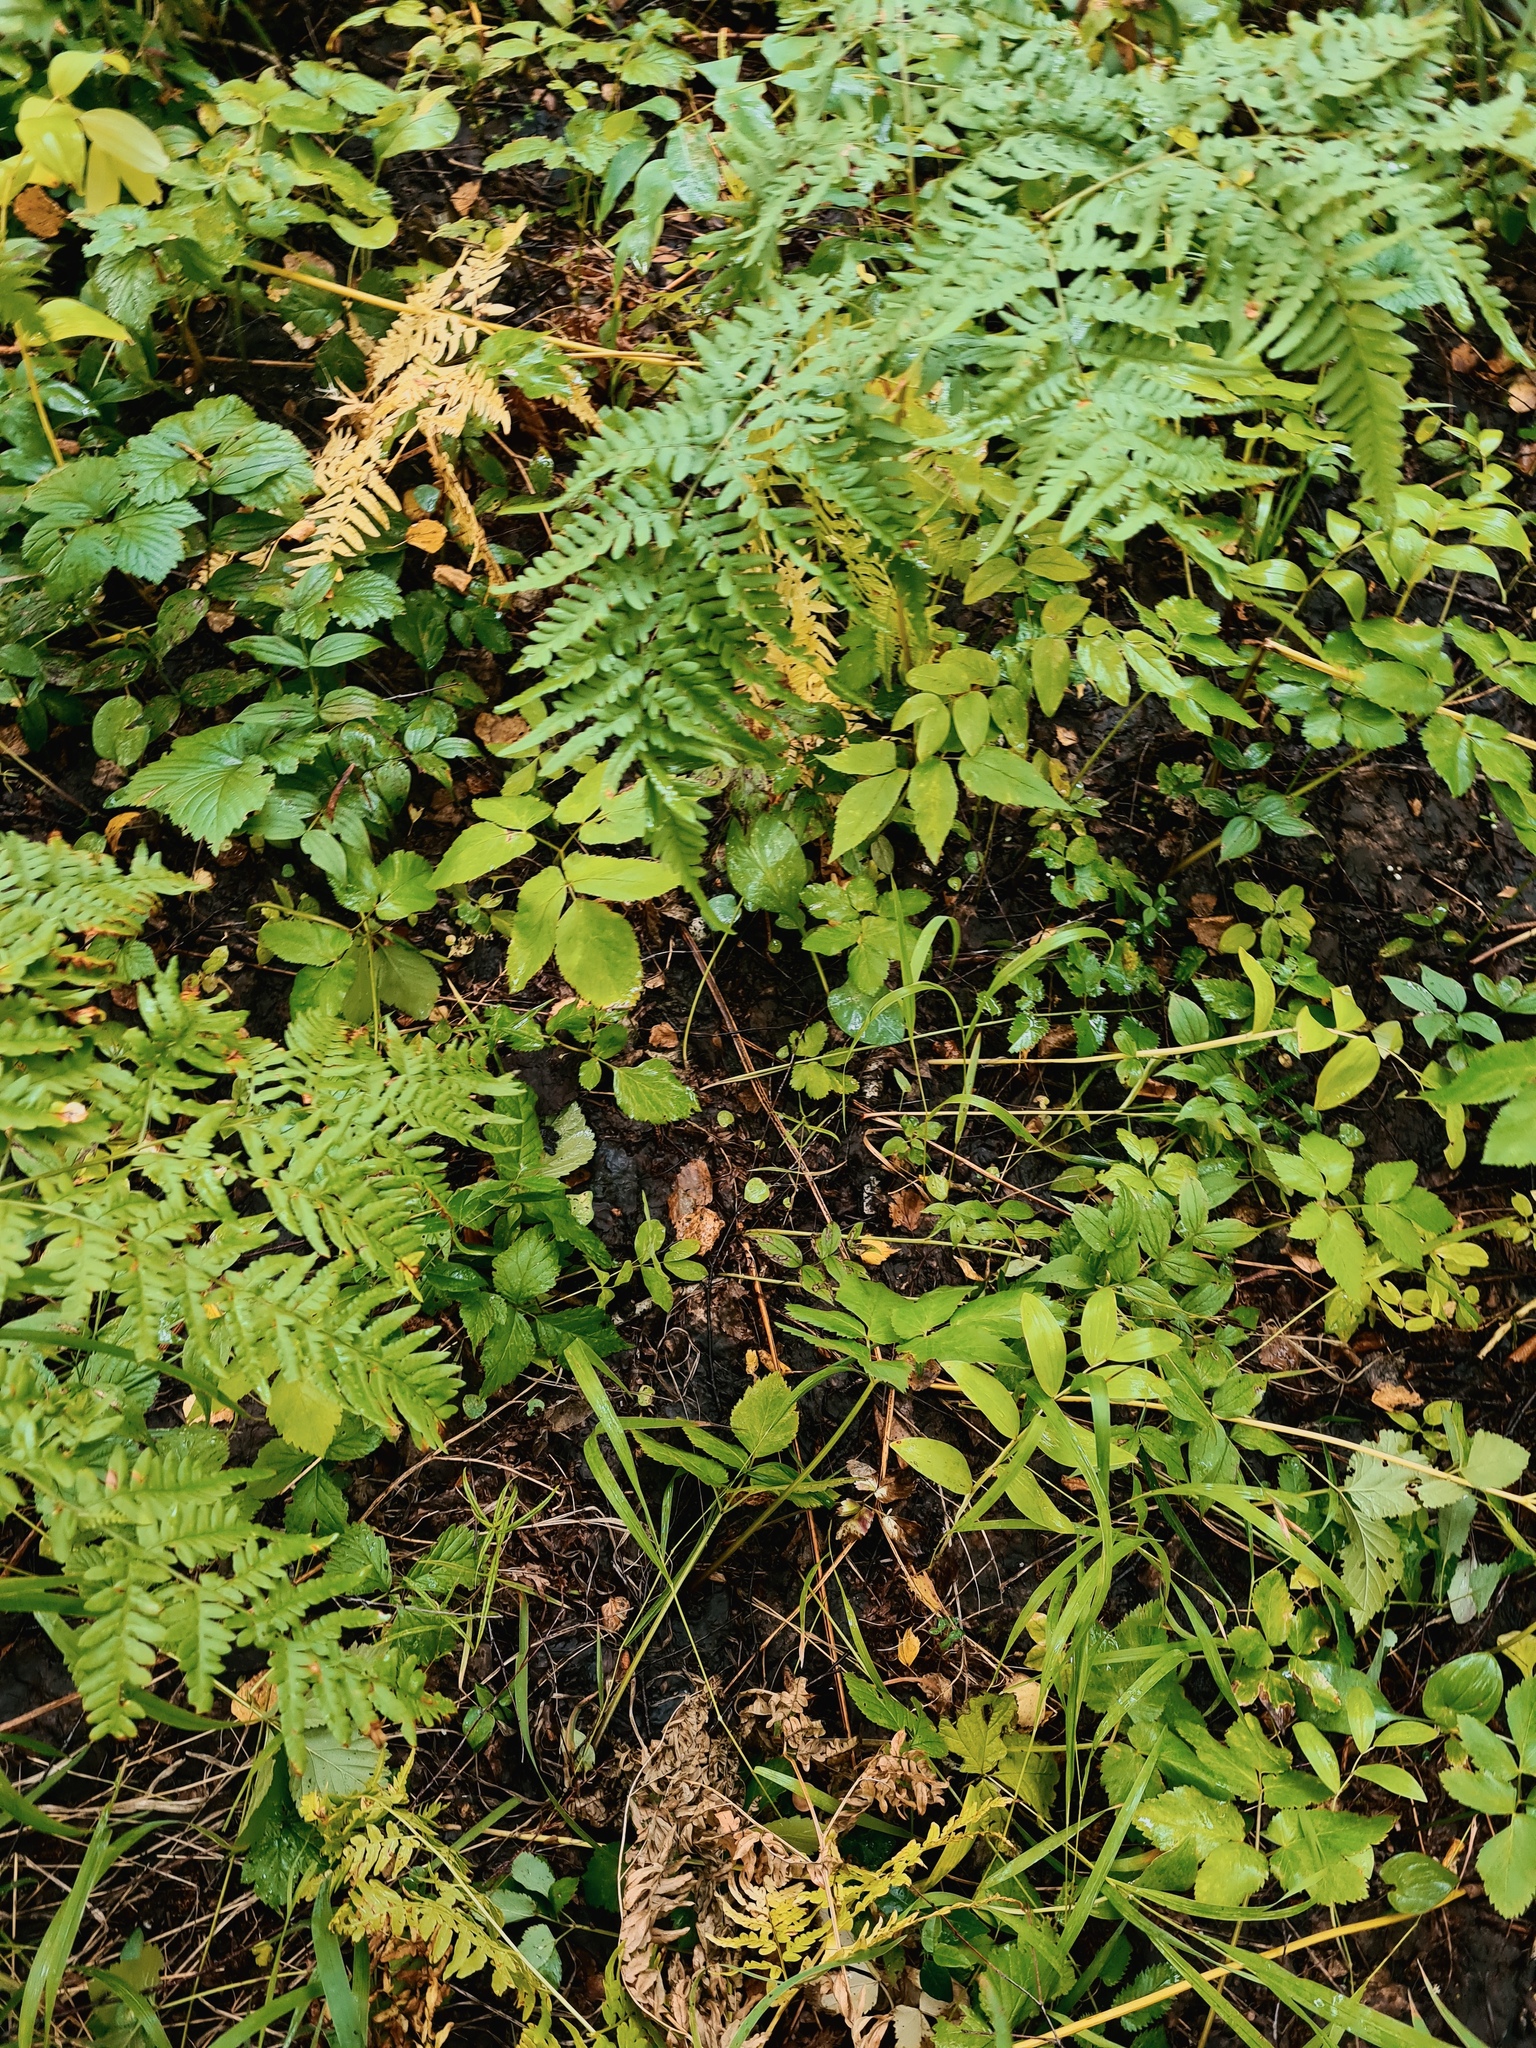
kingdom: Plantae
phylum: Tracheophyta
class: Polypodiopsida
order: Polypodiales
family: Dennstaedtiaceae
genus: Pteridium
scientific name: Pteridium aquilinum
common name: Bracken
